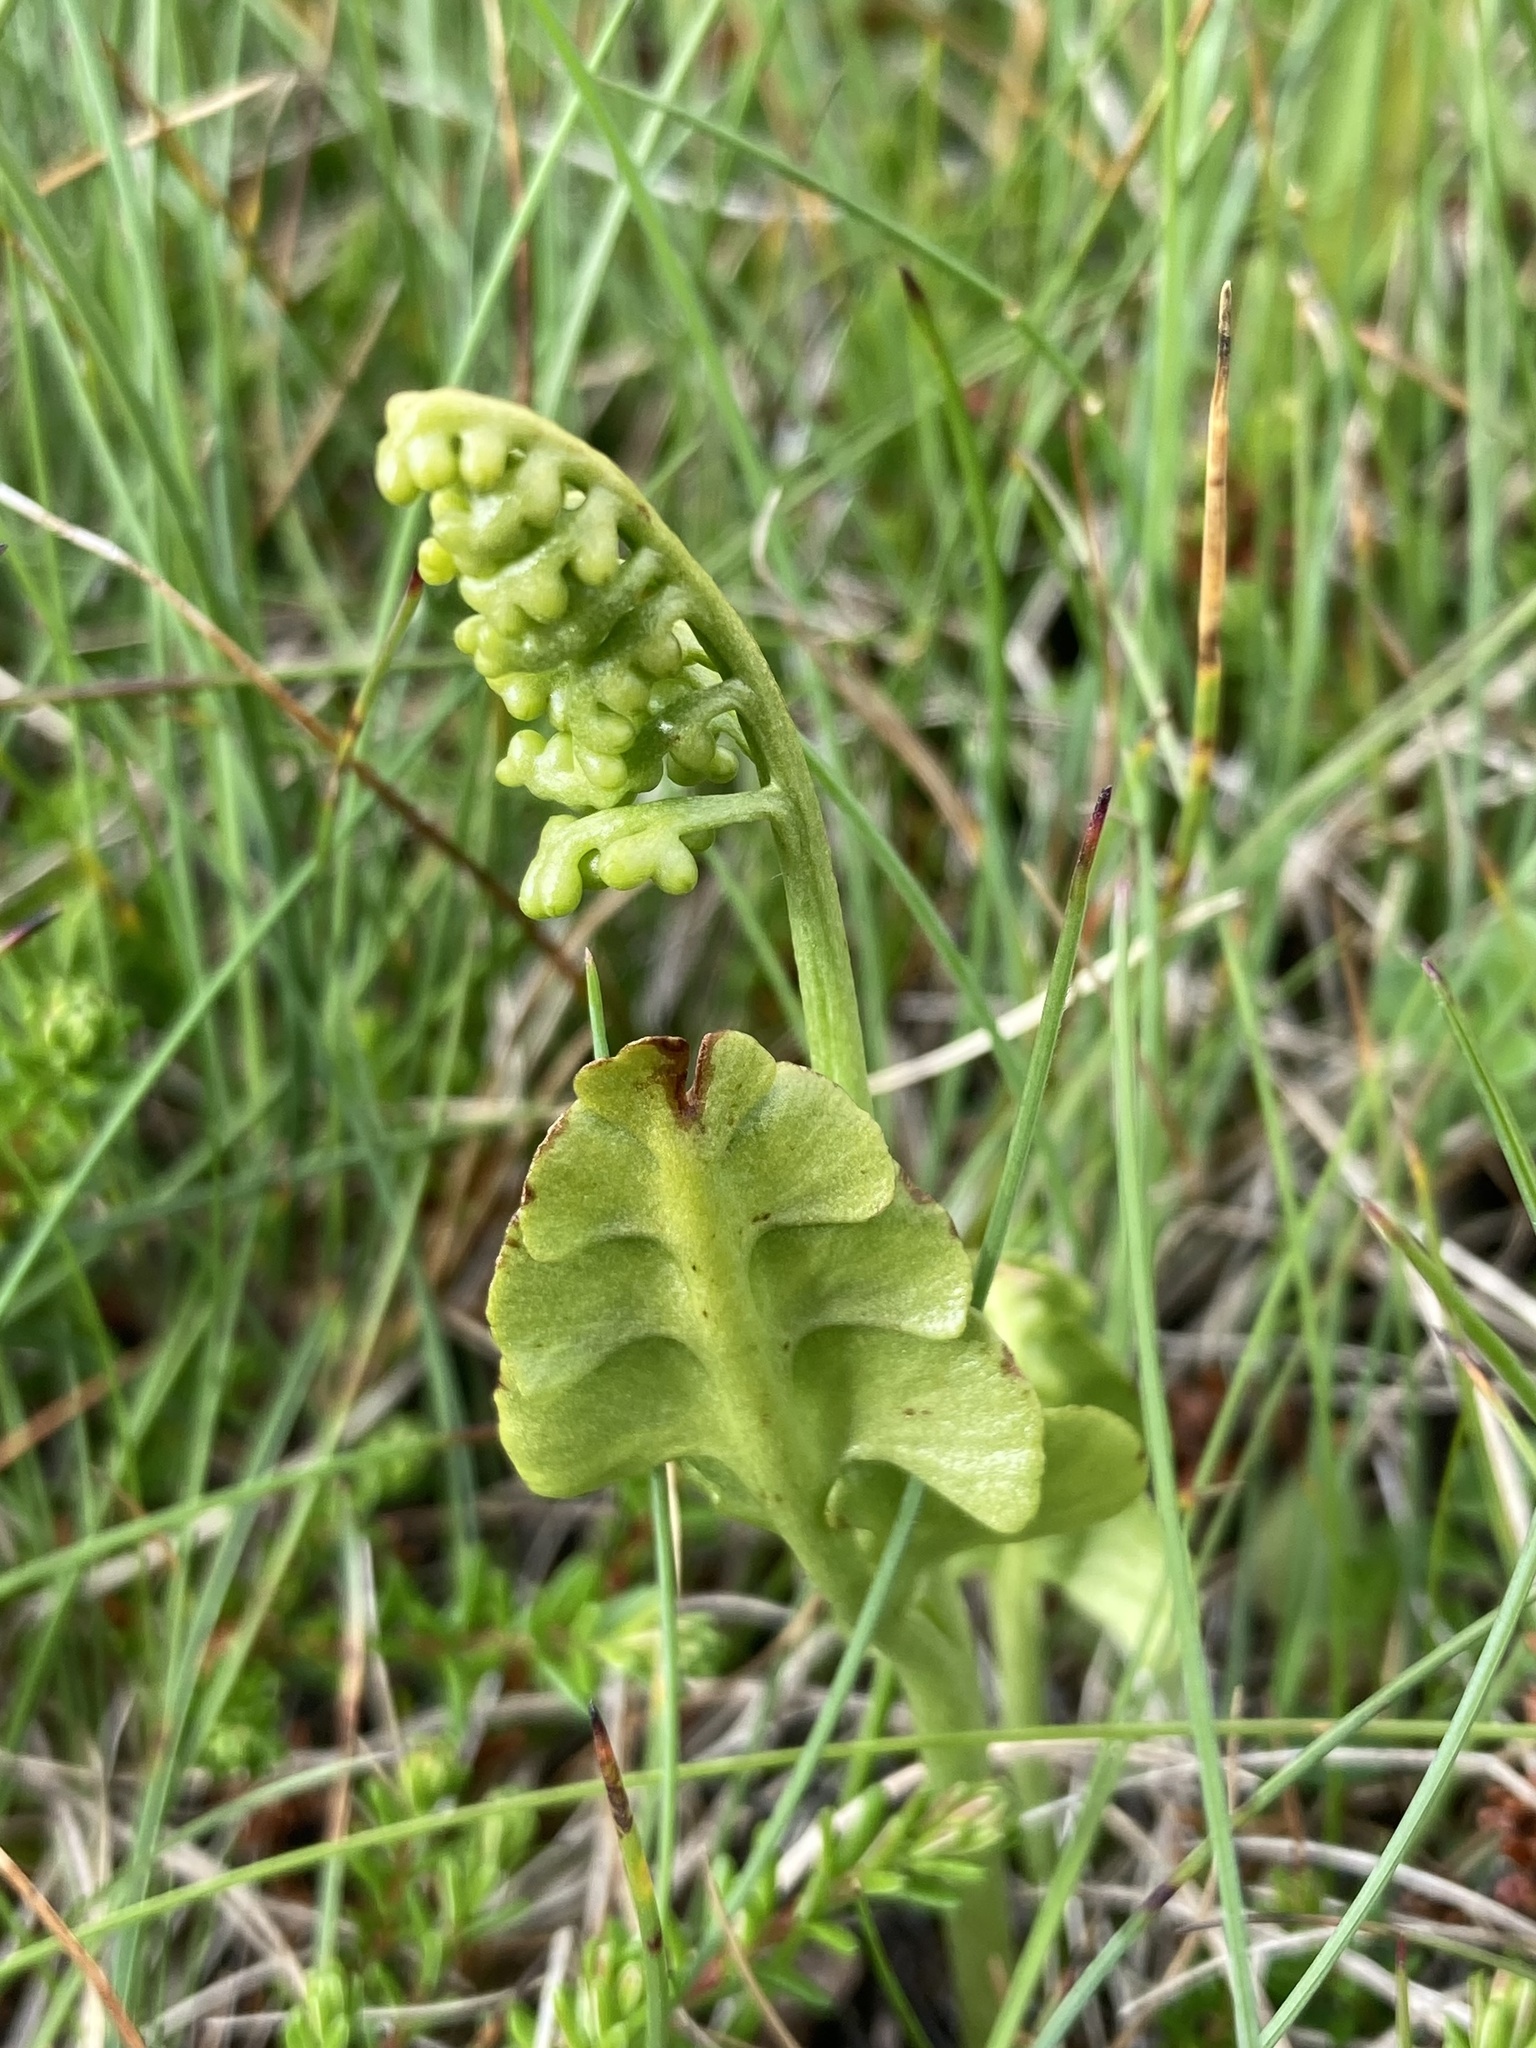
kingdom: Plantae
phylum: Tracheophyta
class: Polypodiopsida
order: Ophioglossales
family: Ophioglossaceae
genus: Botrychium
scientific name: Botrychium lunaria
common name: Moonwort
